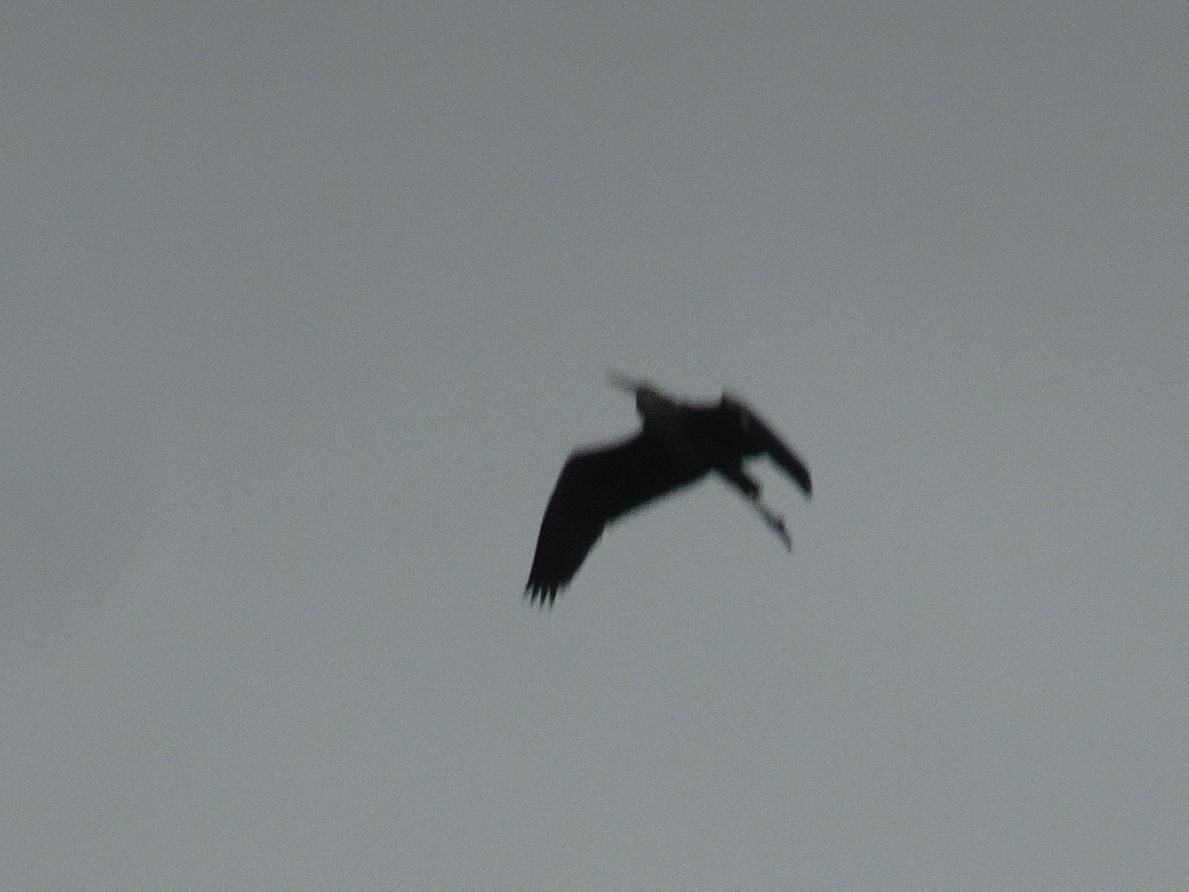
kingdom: Animalia
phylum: Chordata
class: Aves
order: Pelecaniformes
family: Ardeidae
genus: Ardea
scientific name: Ardea cinerea
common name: Grey heron
